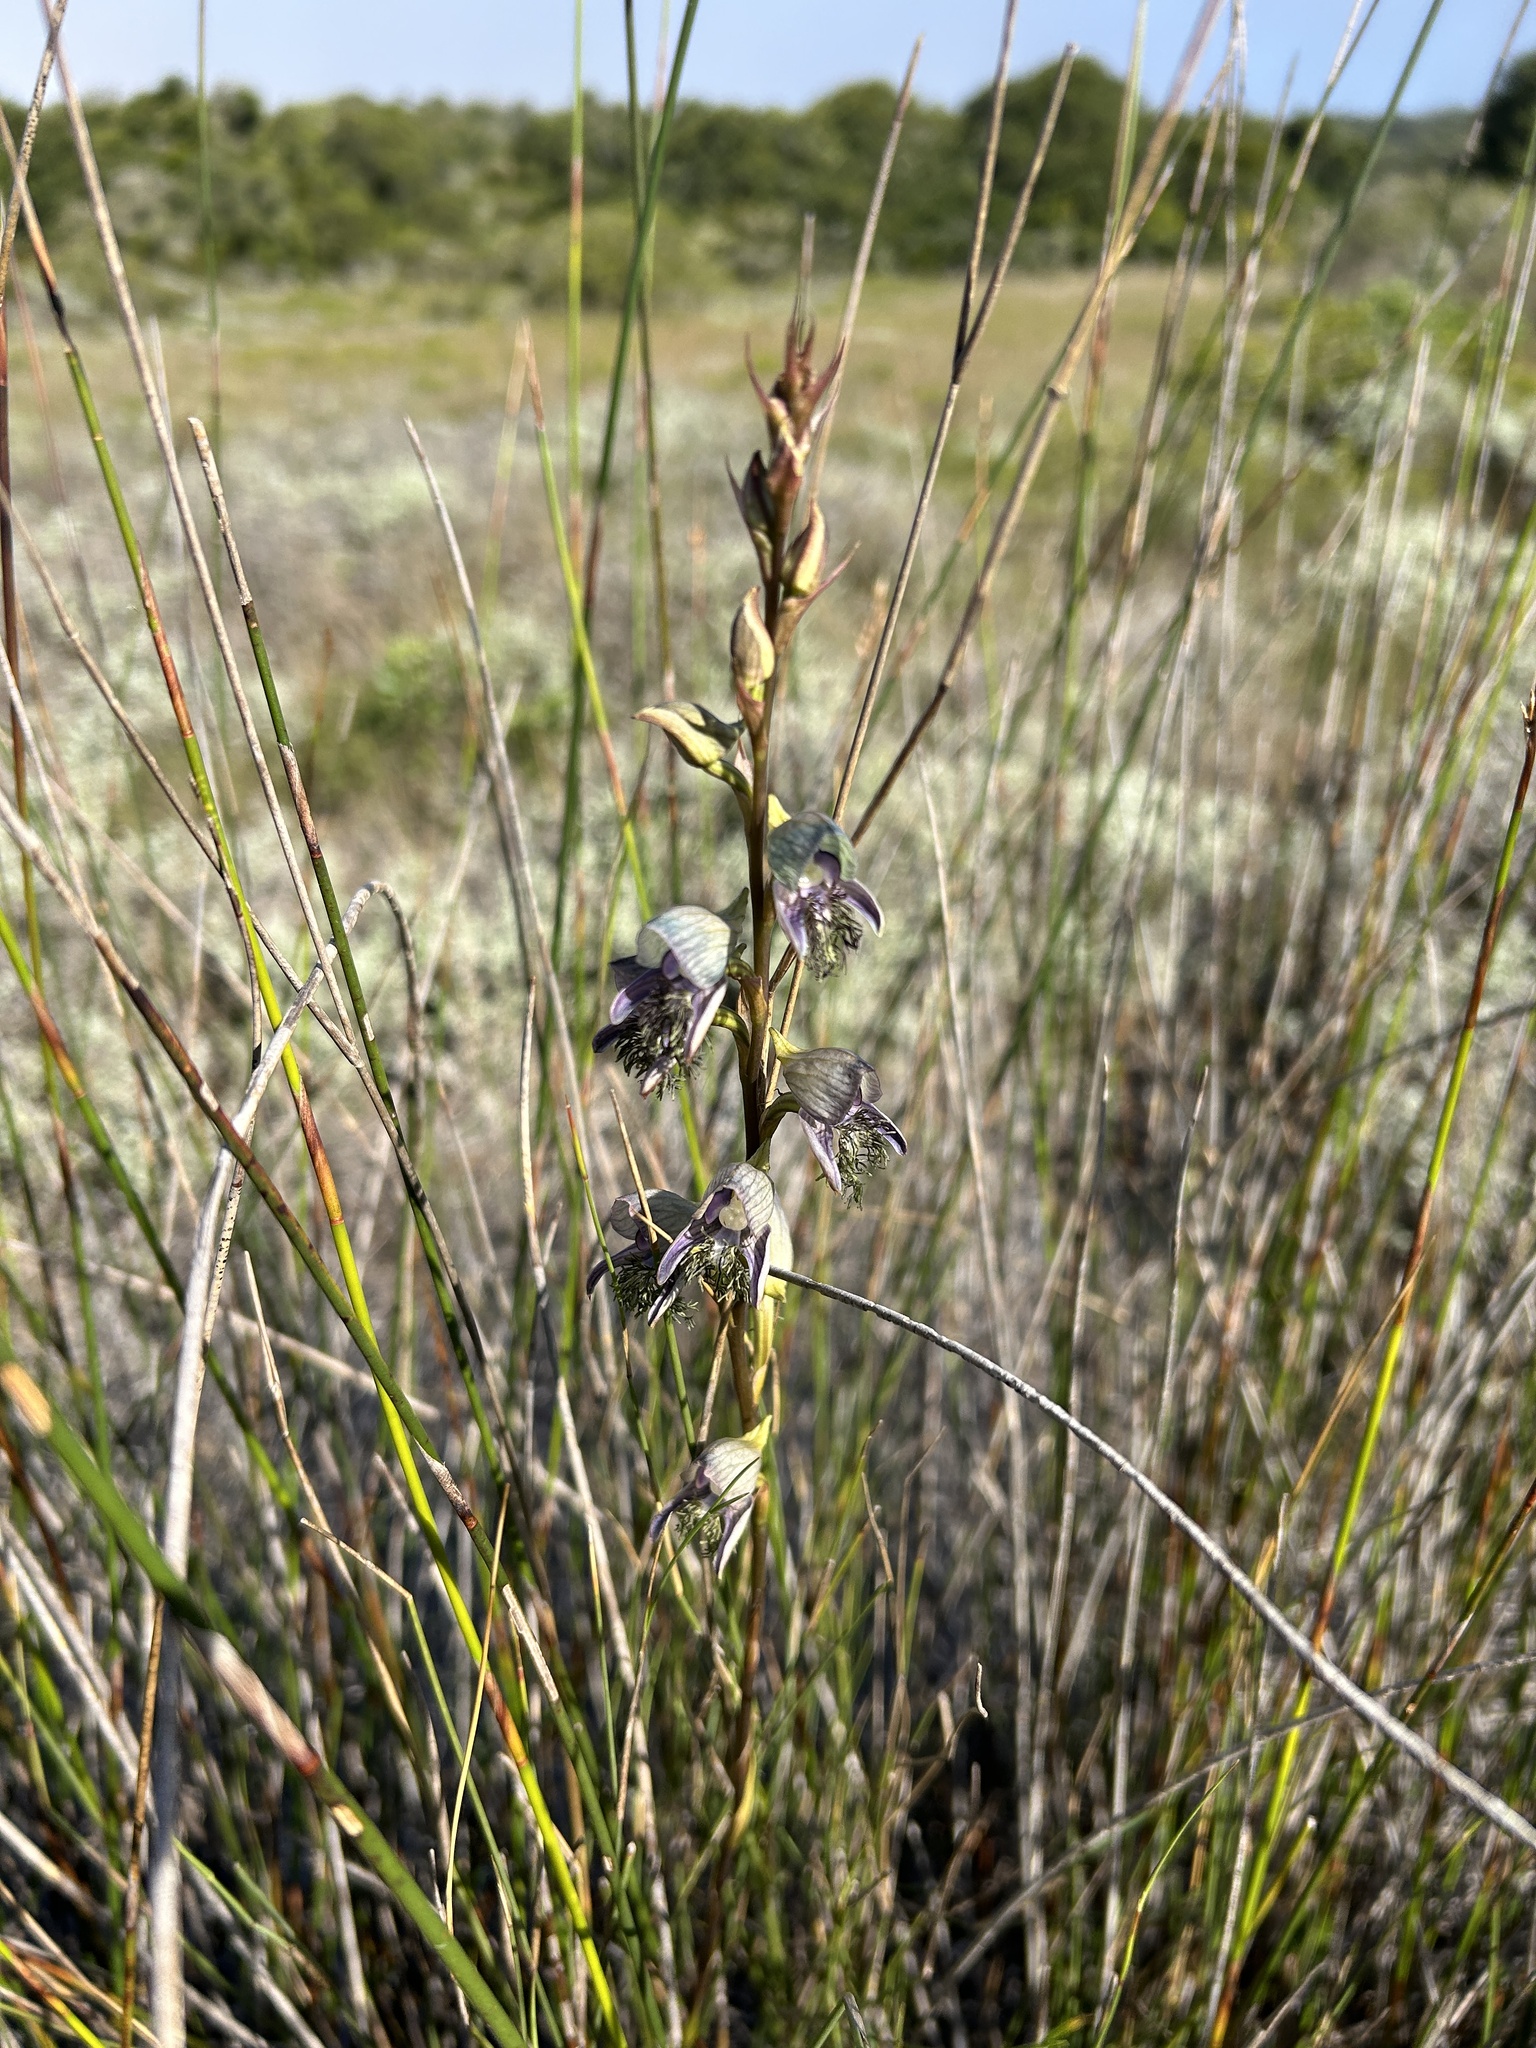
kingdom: Plantae
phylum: Tracheophyta
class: Liliopsida
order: Asparagales
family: Orchidaceae
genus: Disa
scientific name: Disa lugens
